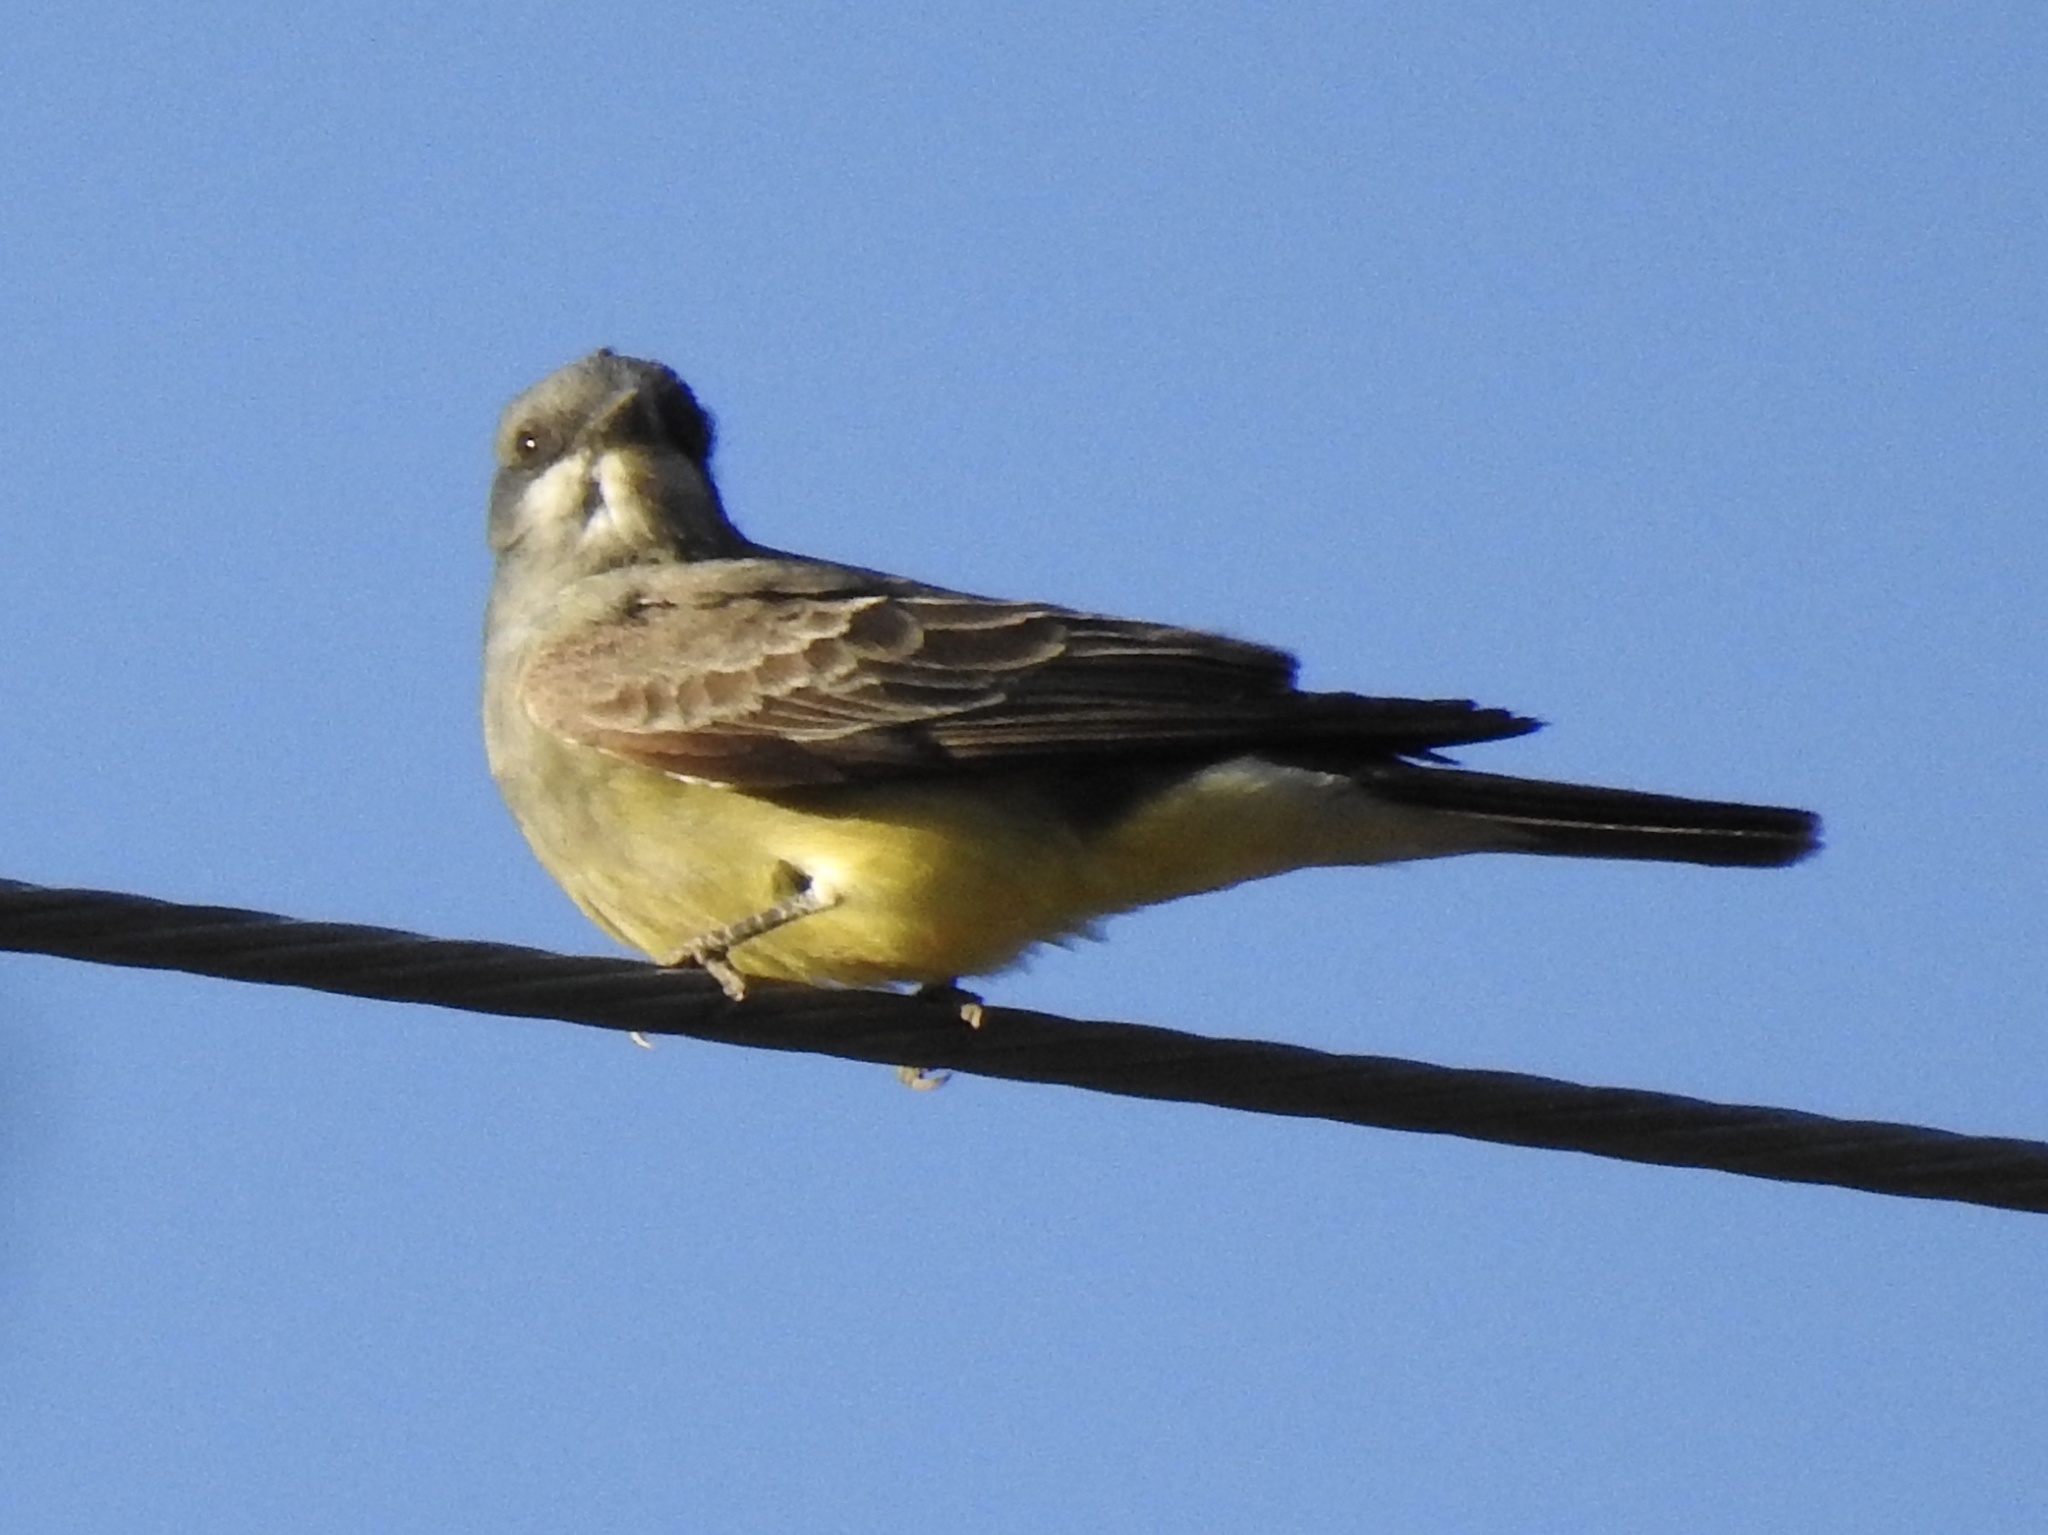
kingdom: Animalia
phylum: Chordata
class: Aves
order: Passeriformes
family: Tyrannidae
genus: Tyrannus
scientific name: Tyrannus vociferans
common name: Cassin's kingbird
